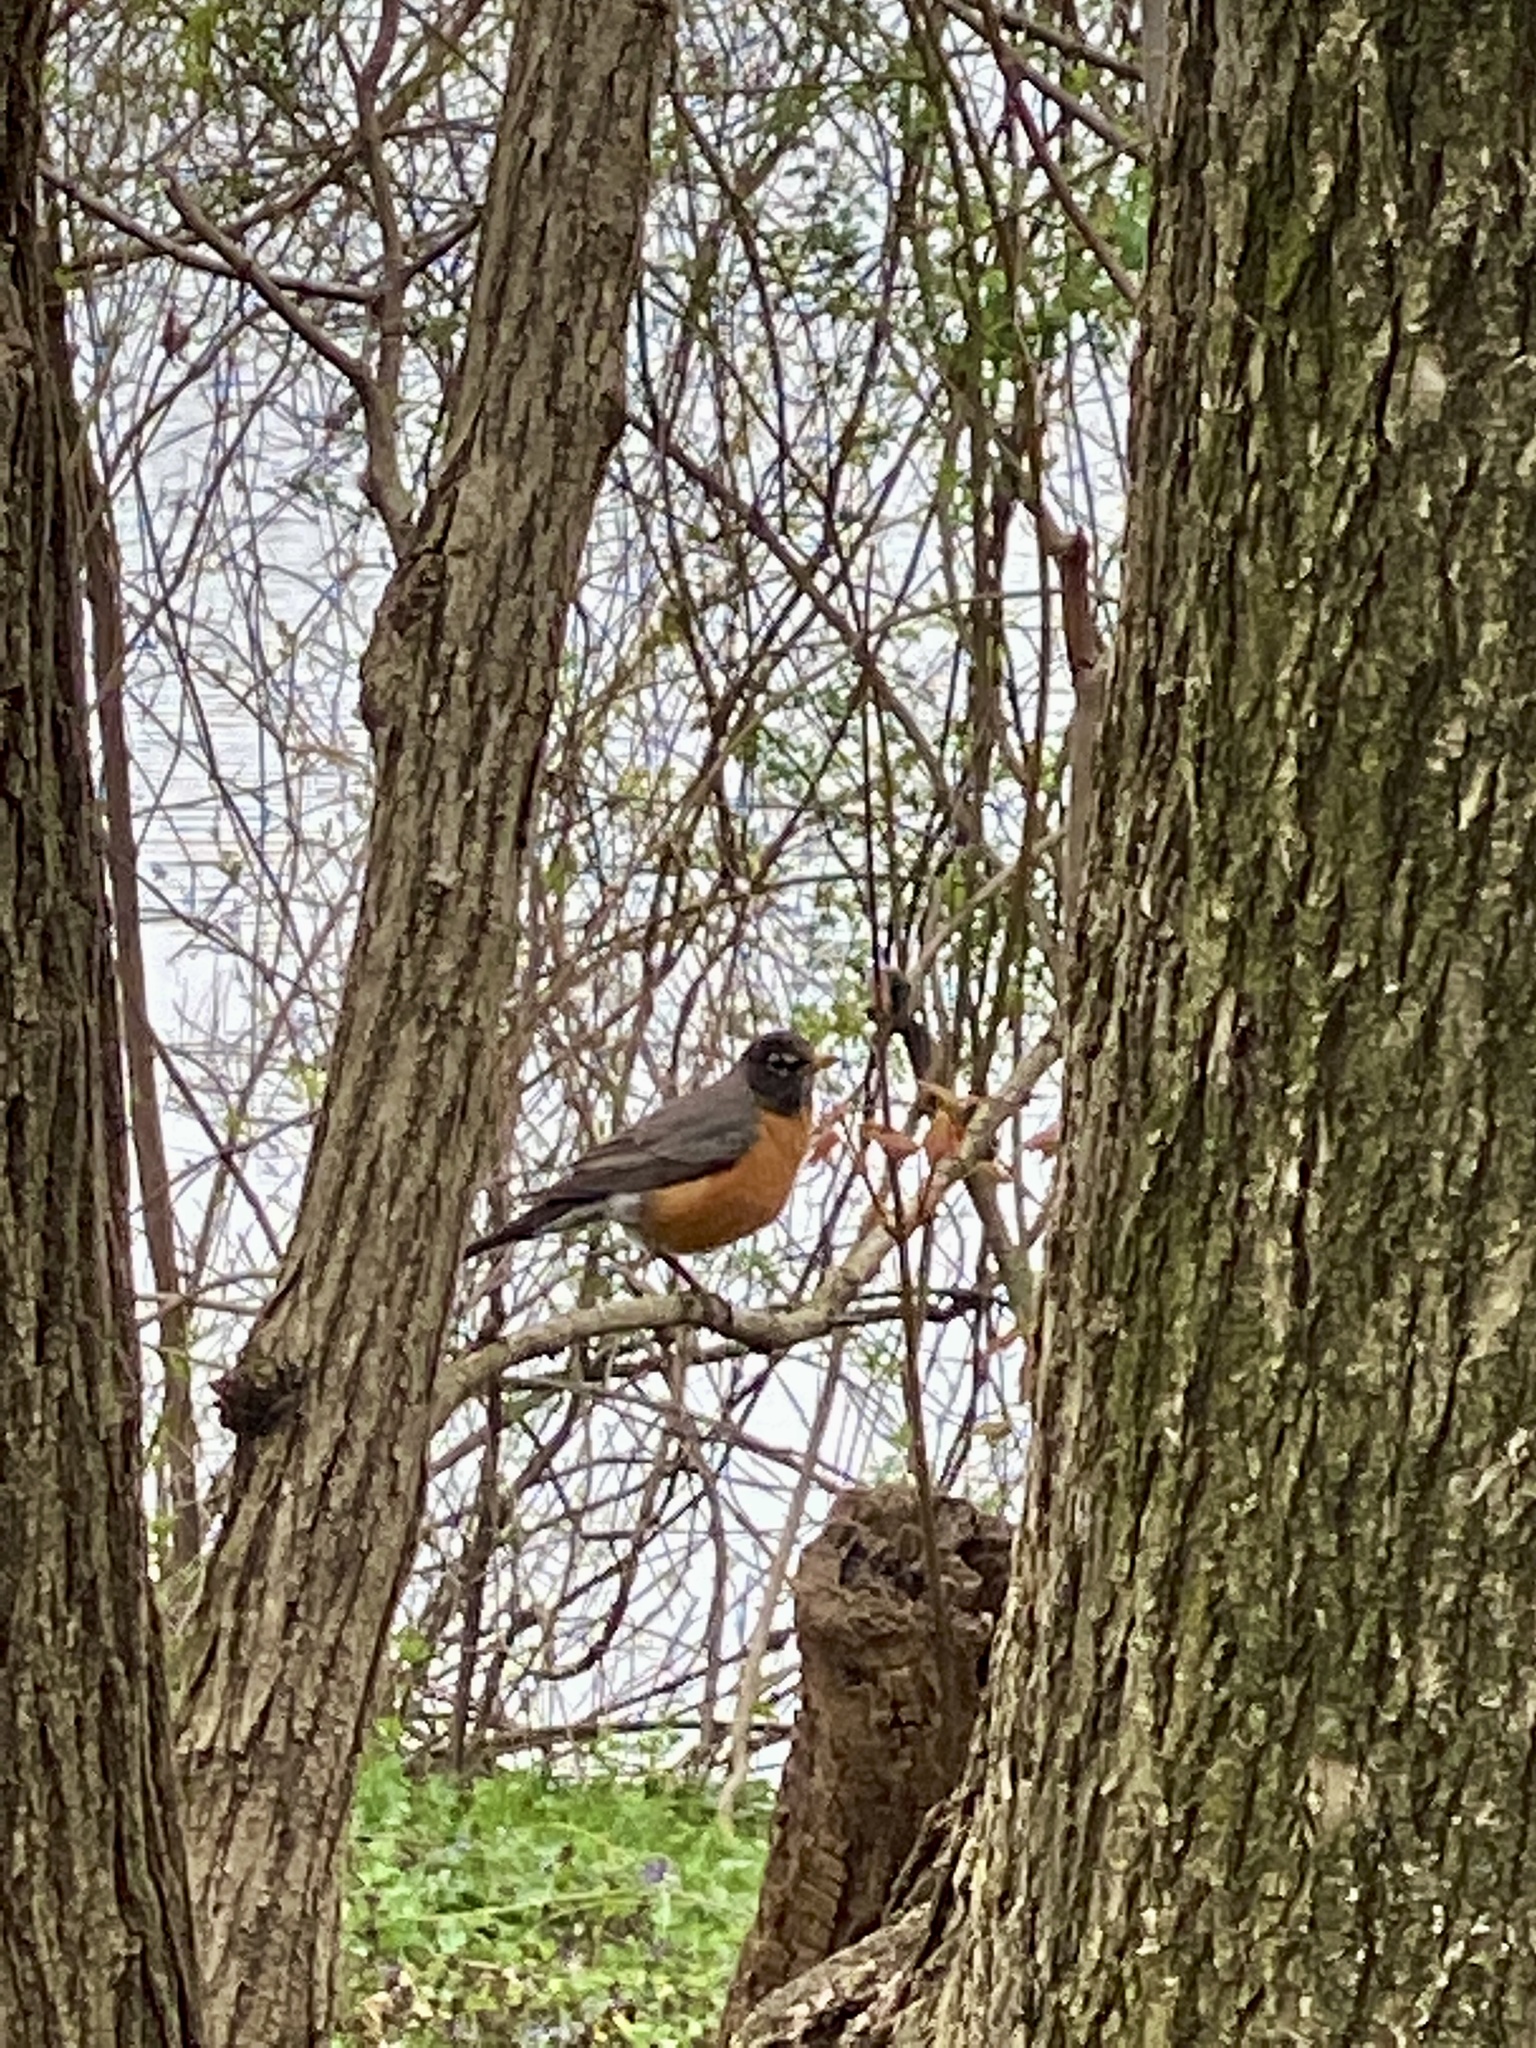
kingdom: Animalia
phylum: Chordata
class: Aves
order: Passeriformes
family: Turdidae
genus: Turdus
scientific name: Turdus migratorius
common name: American robin
